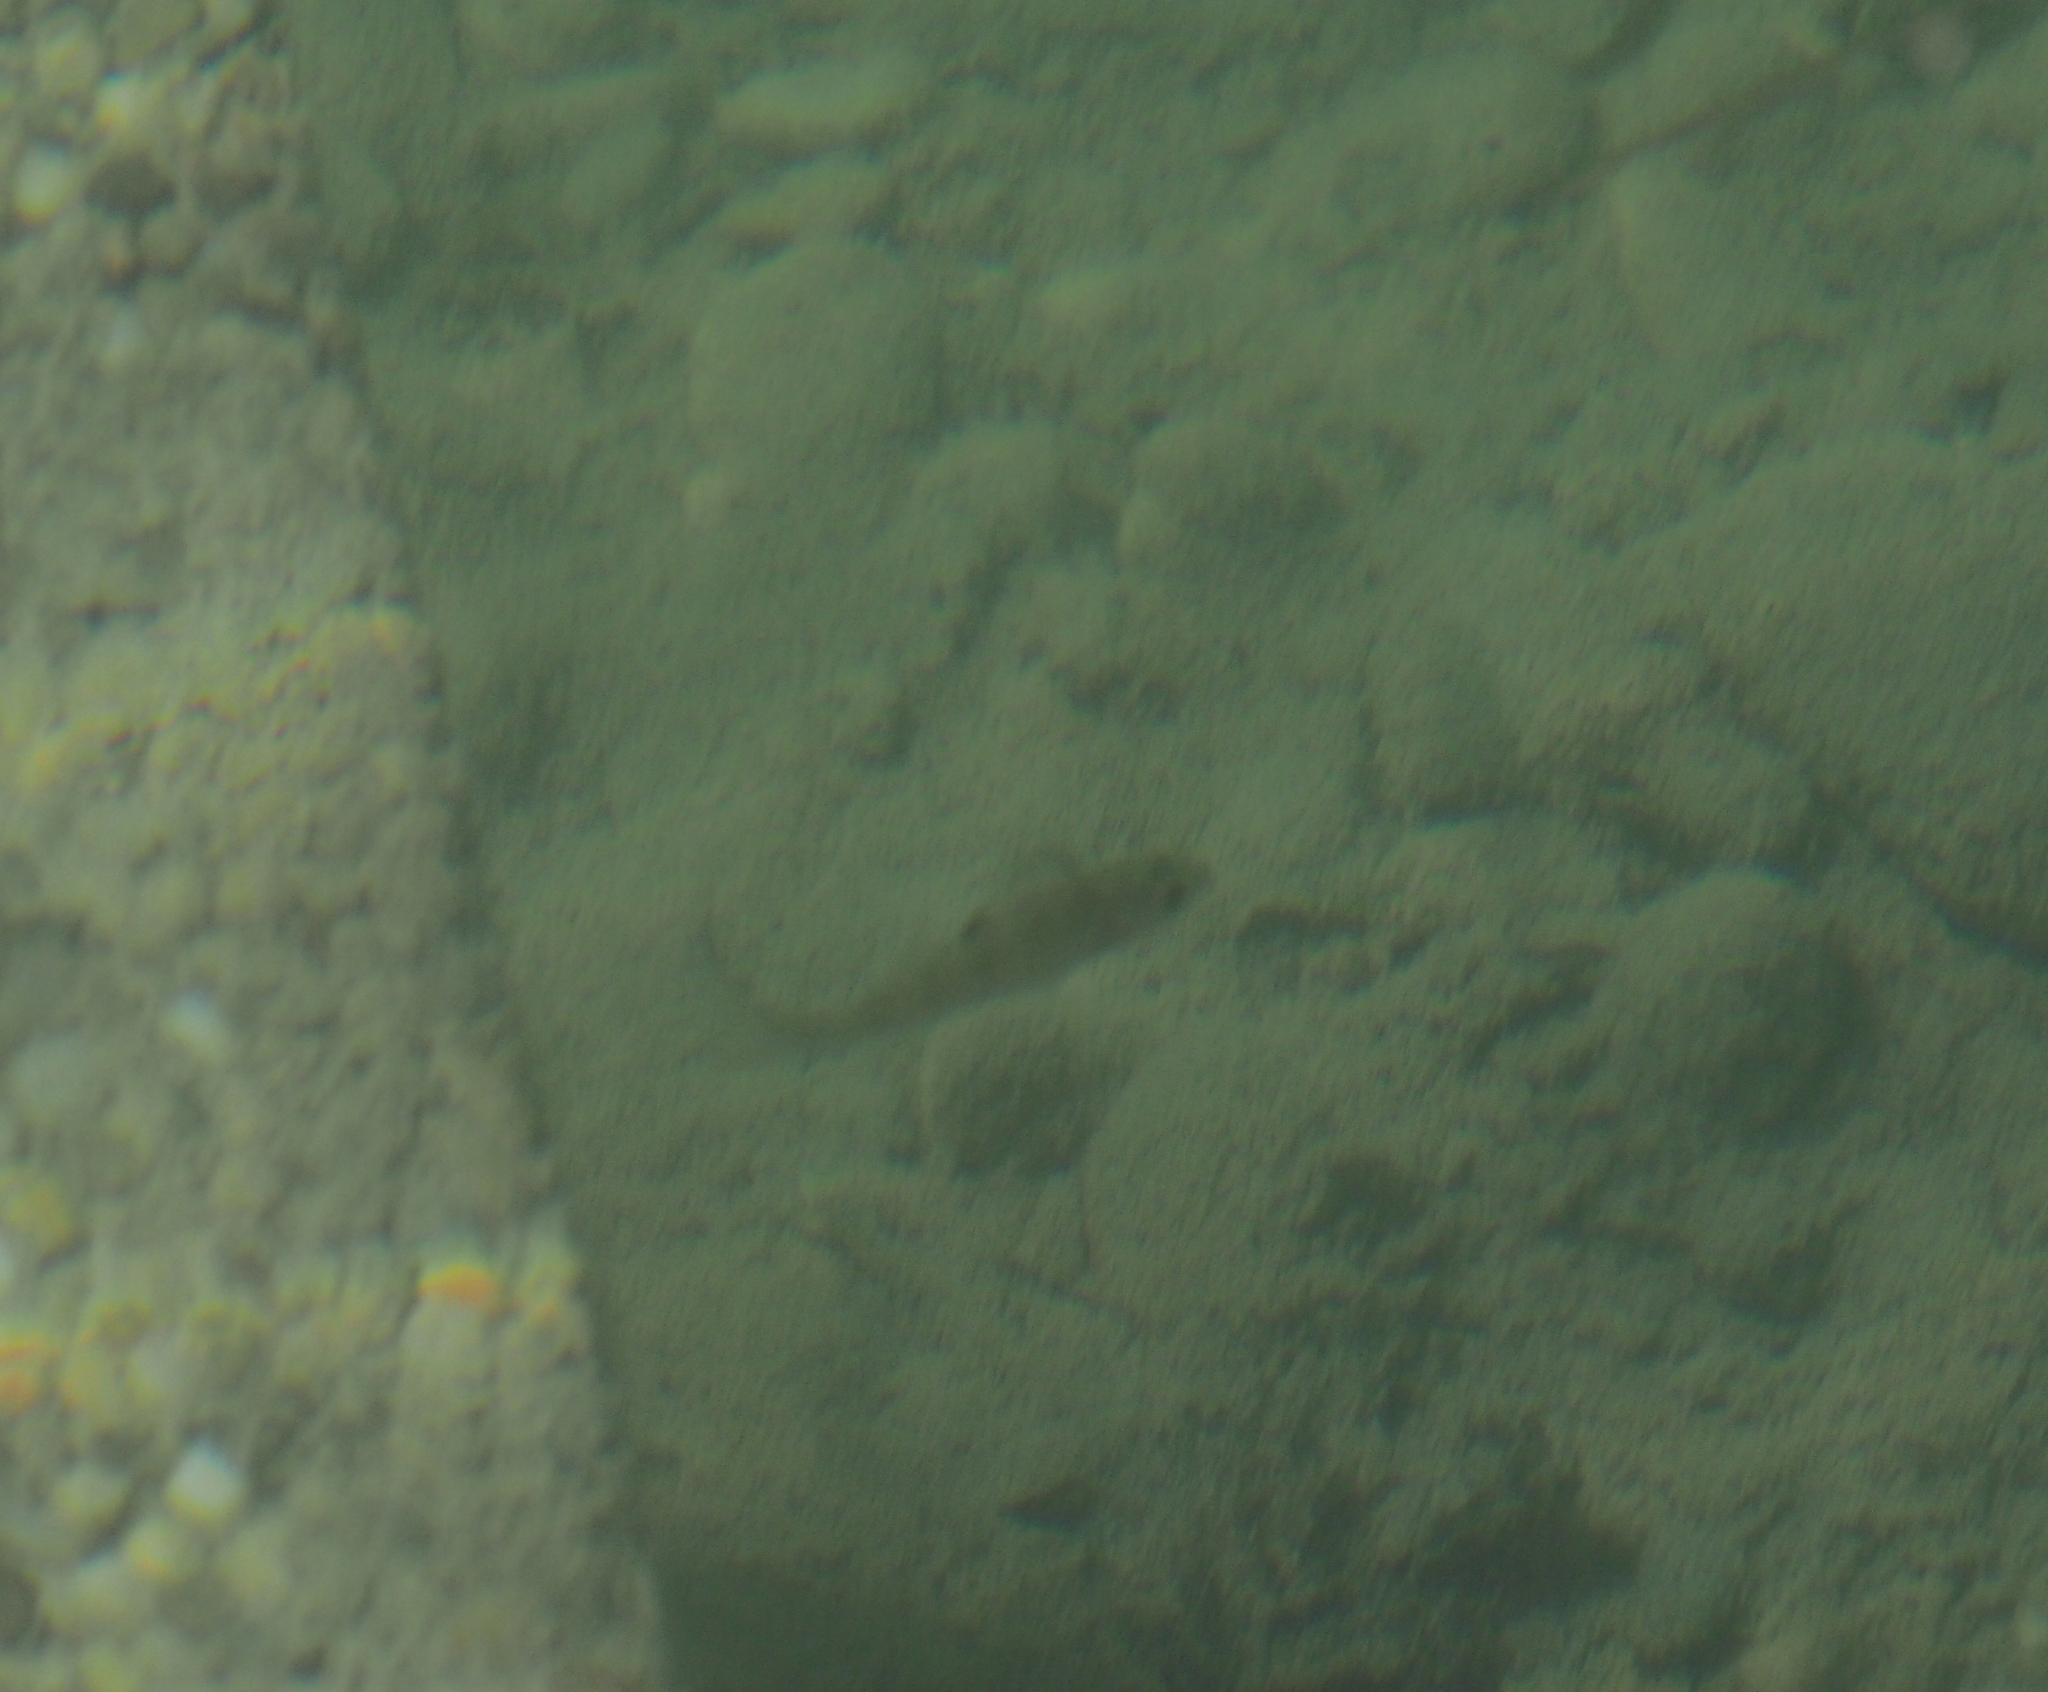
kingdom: Animalia
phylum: Chordata
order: Perciformes
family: Percidae
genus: Perca
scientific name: Perca fluviatilis
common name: Perch
